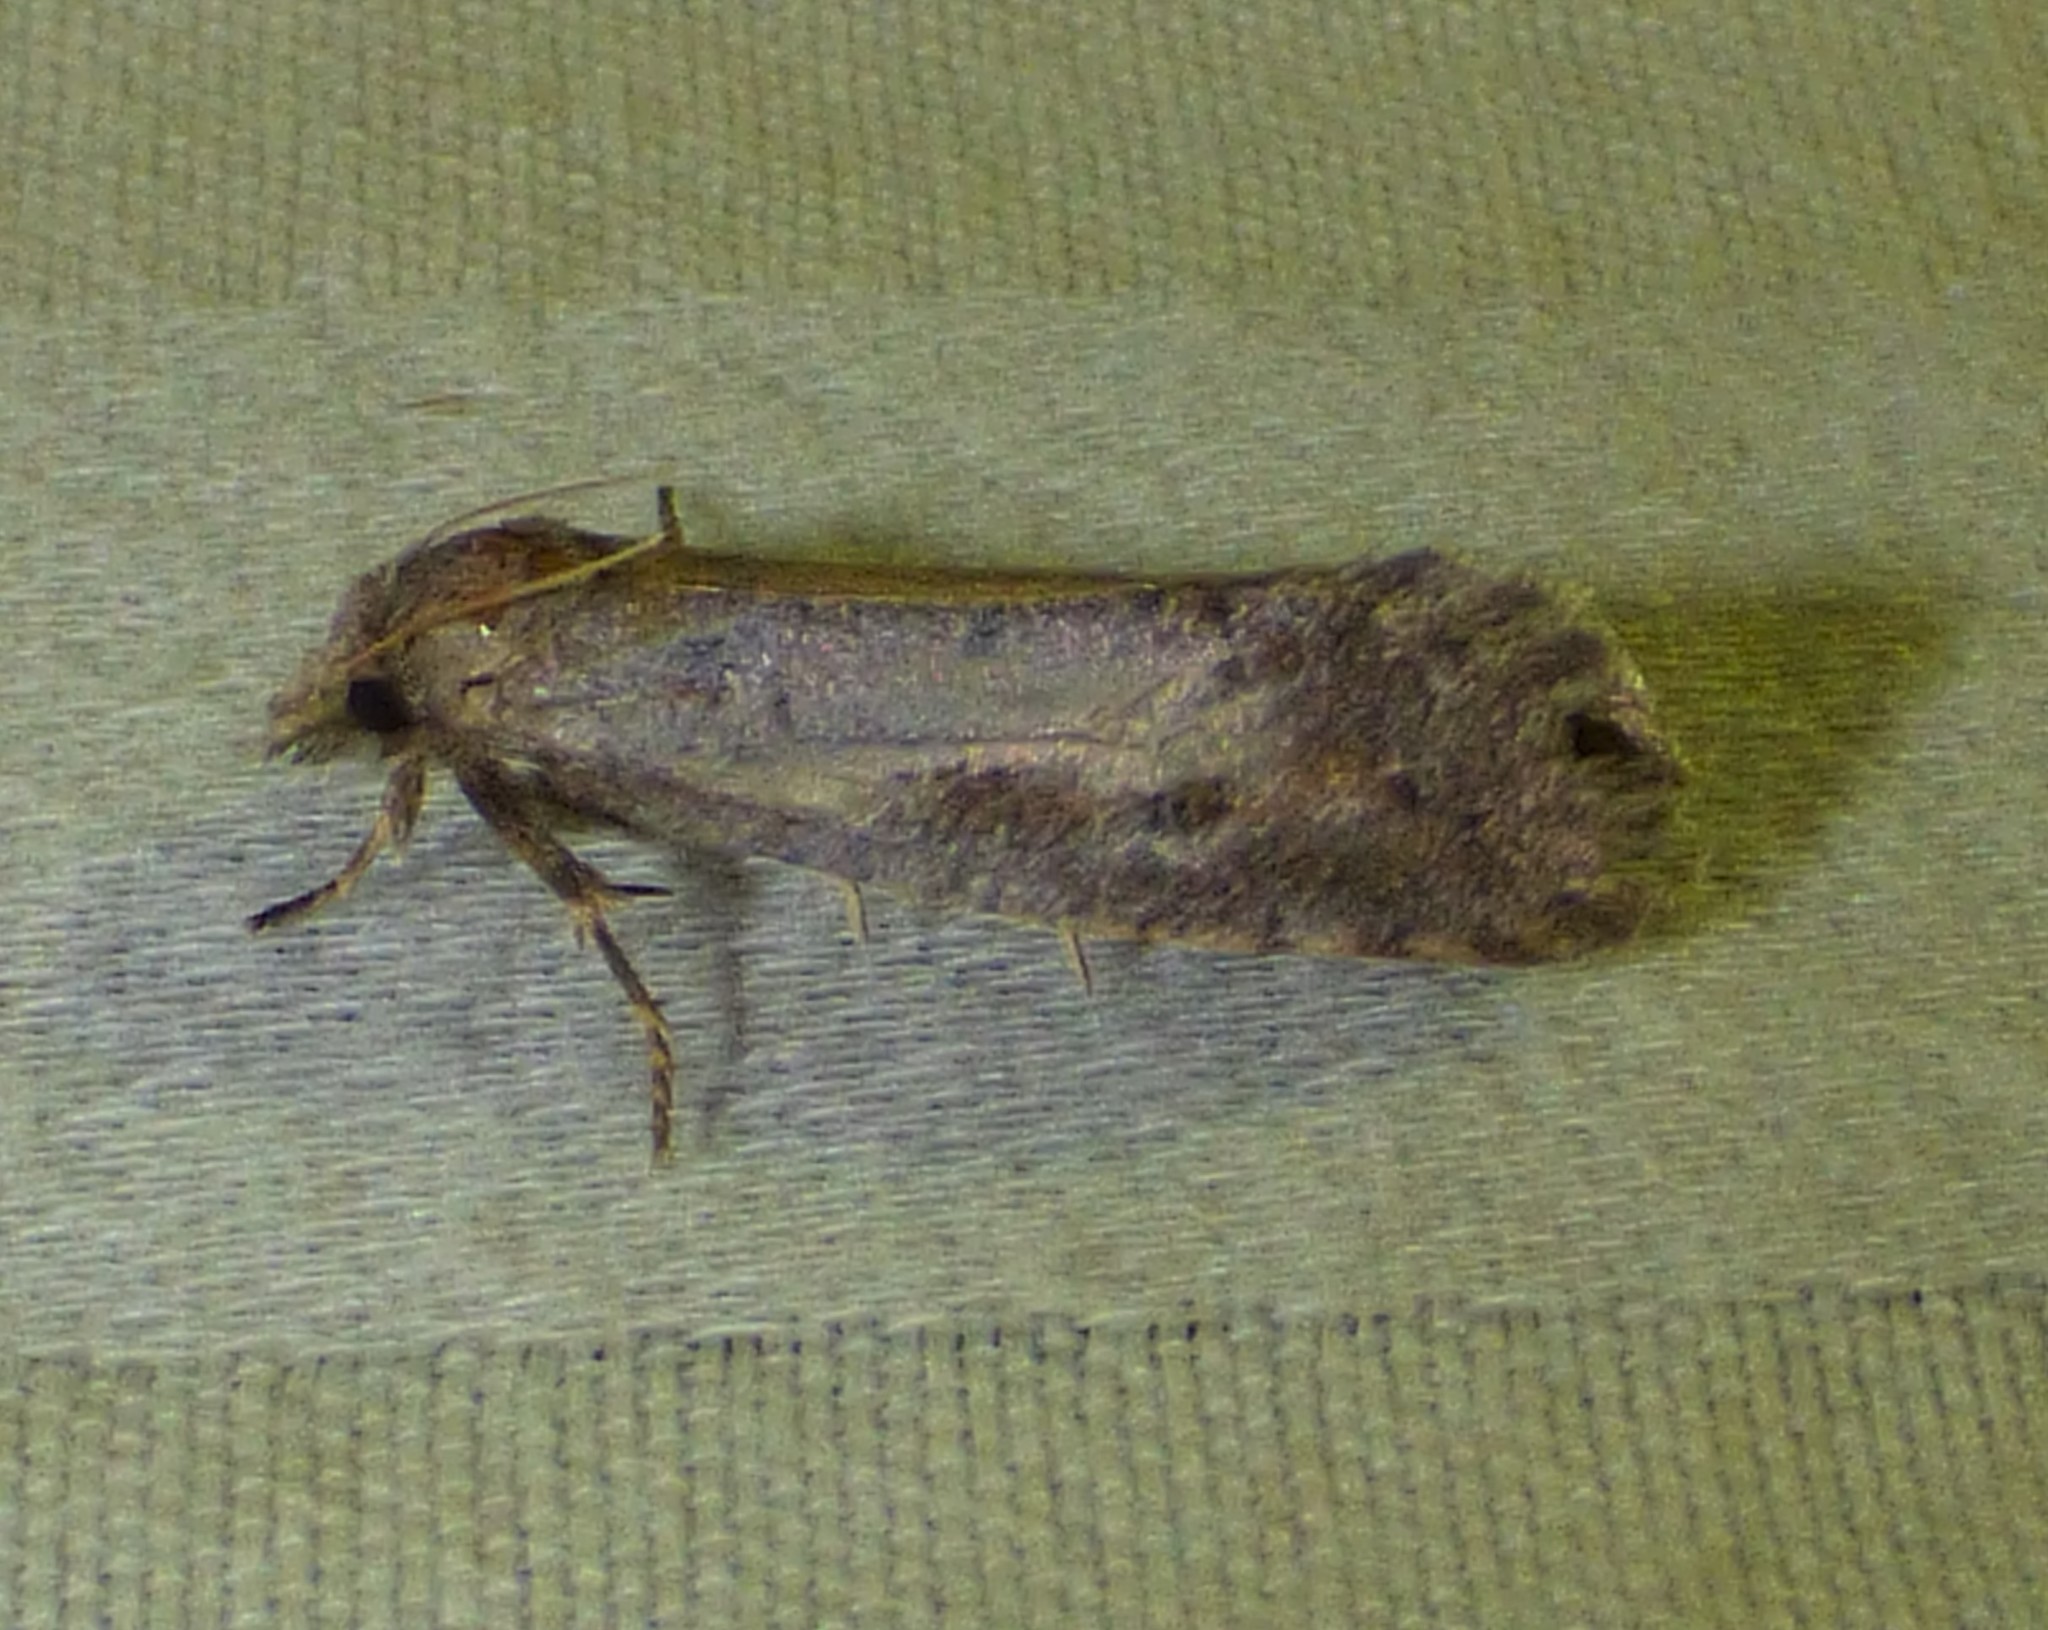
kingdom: Animalia
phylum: Arthropoda
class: Insecta
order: Lepidoptera
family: Tineidae
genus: Acrolophus
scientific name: Acrolophus popeanella
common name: Clemens' grass tubeworm moth
